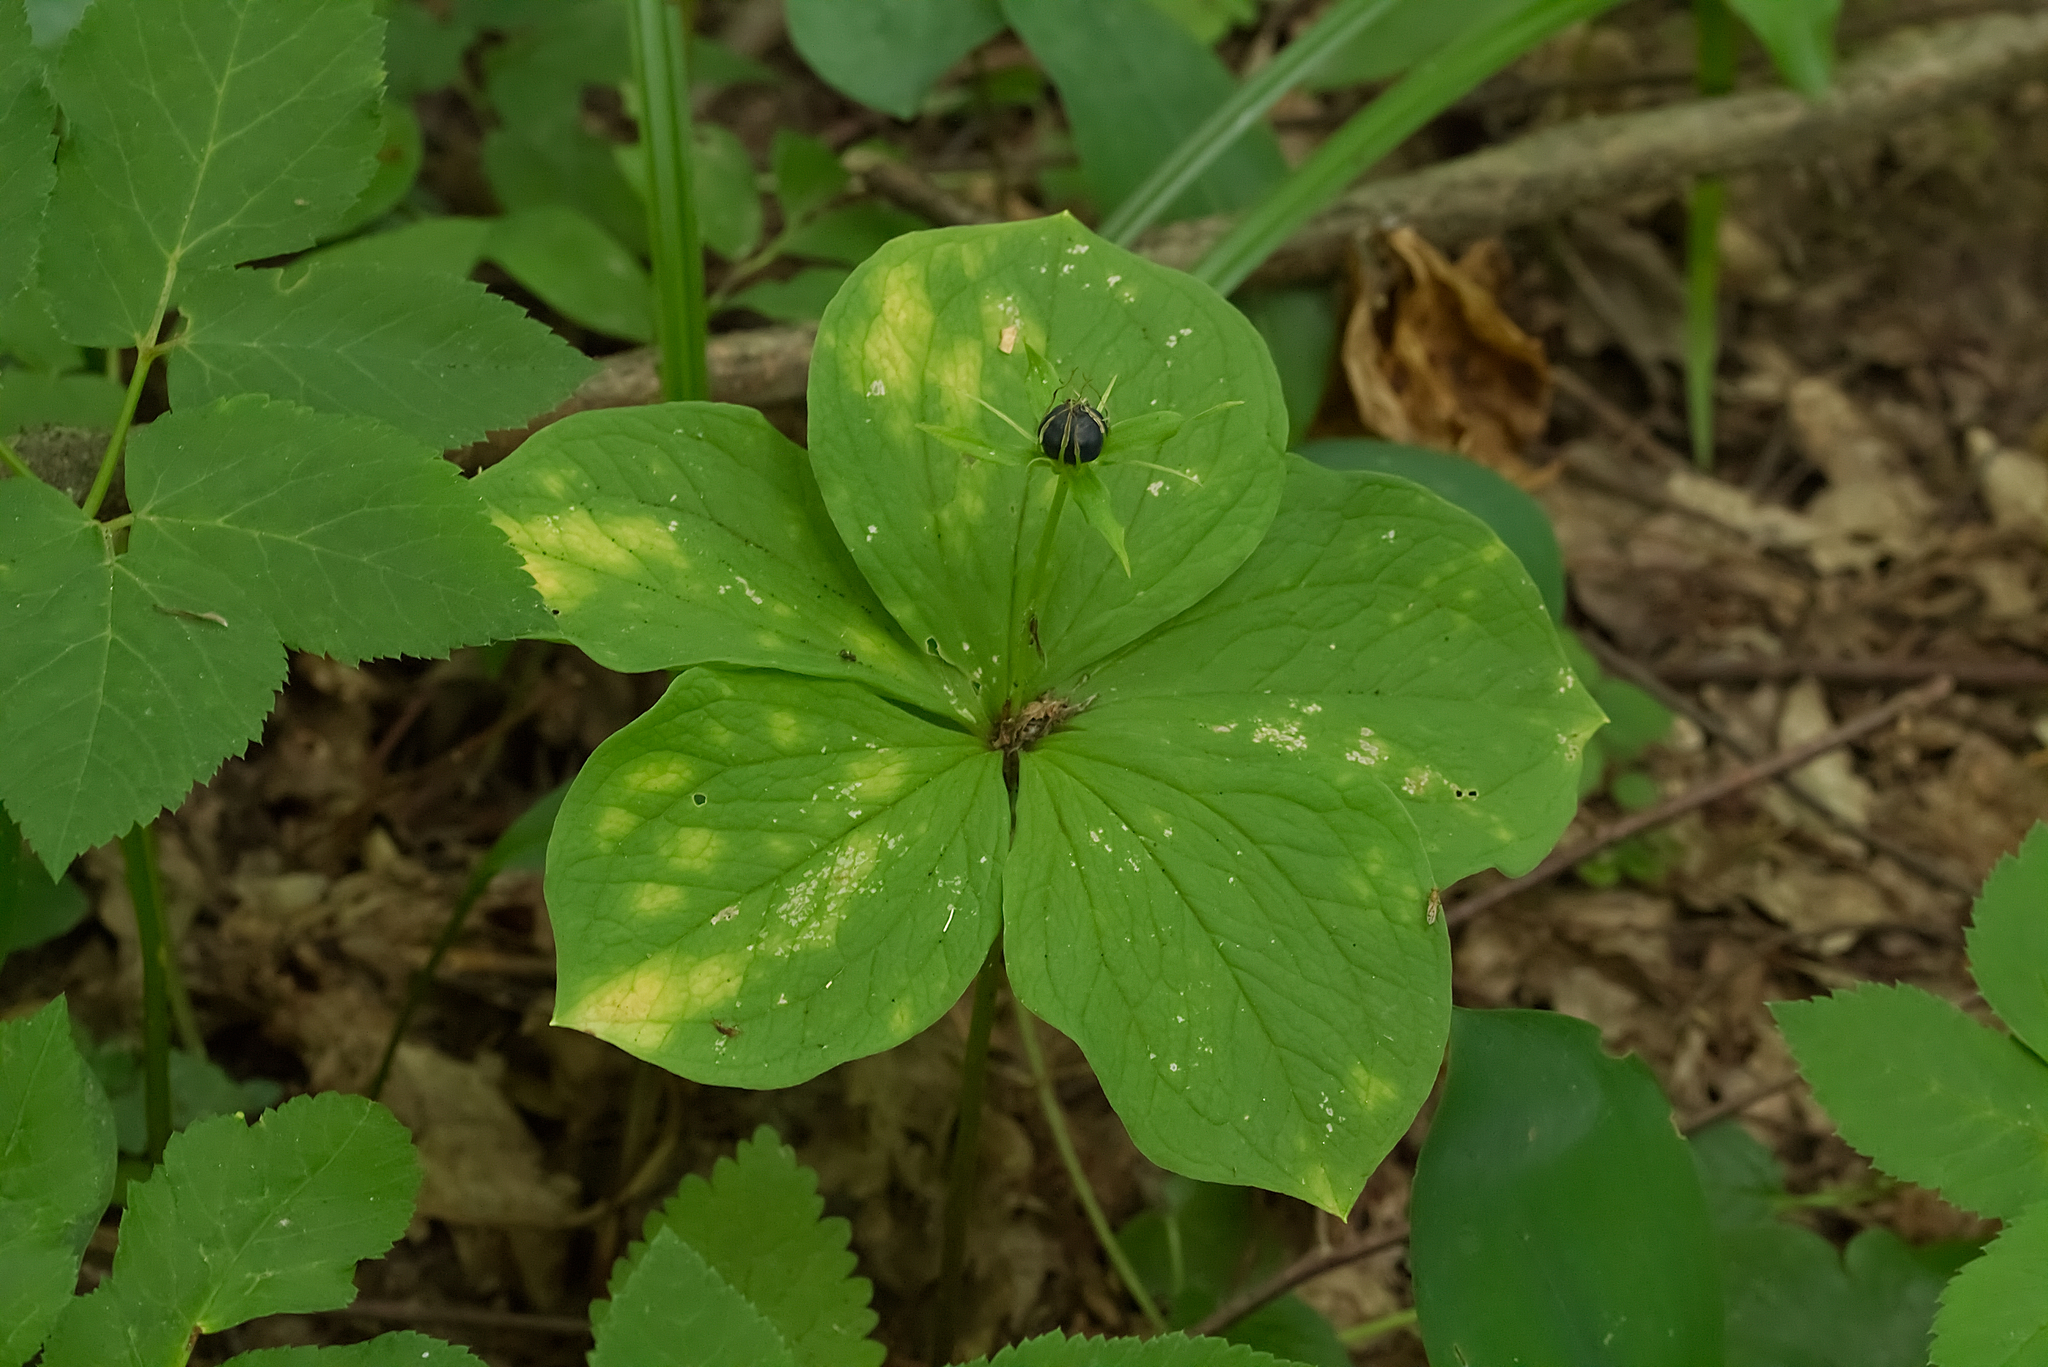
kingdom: Plantae
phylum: Tracheophyta
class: Liliopsida
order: Liliales
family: Melanthiaceae
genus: Paris
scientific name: Paris quadrifolia
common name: Herb-paris
